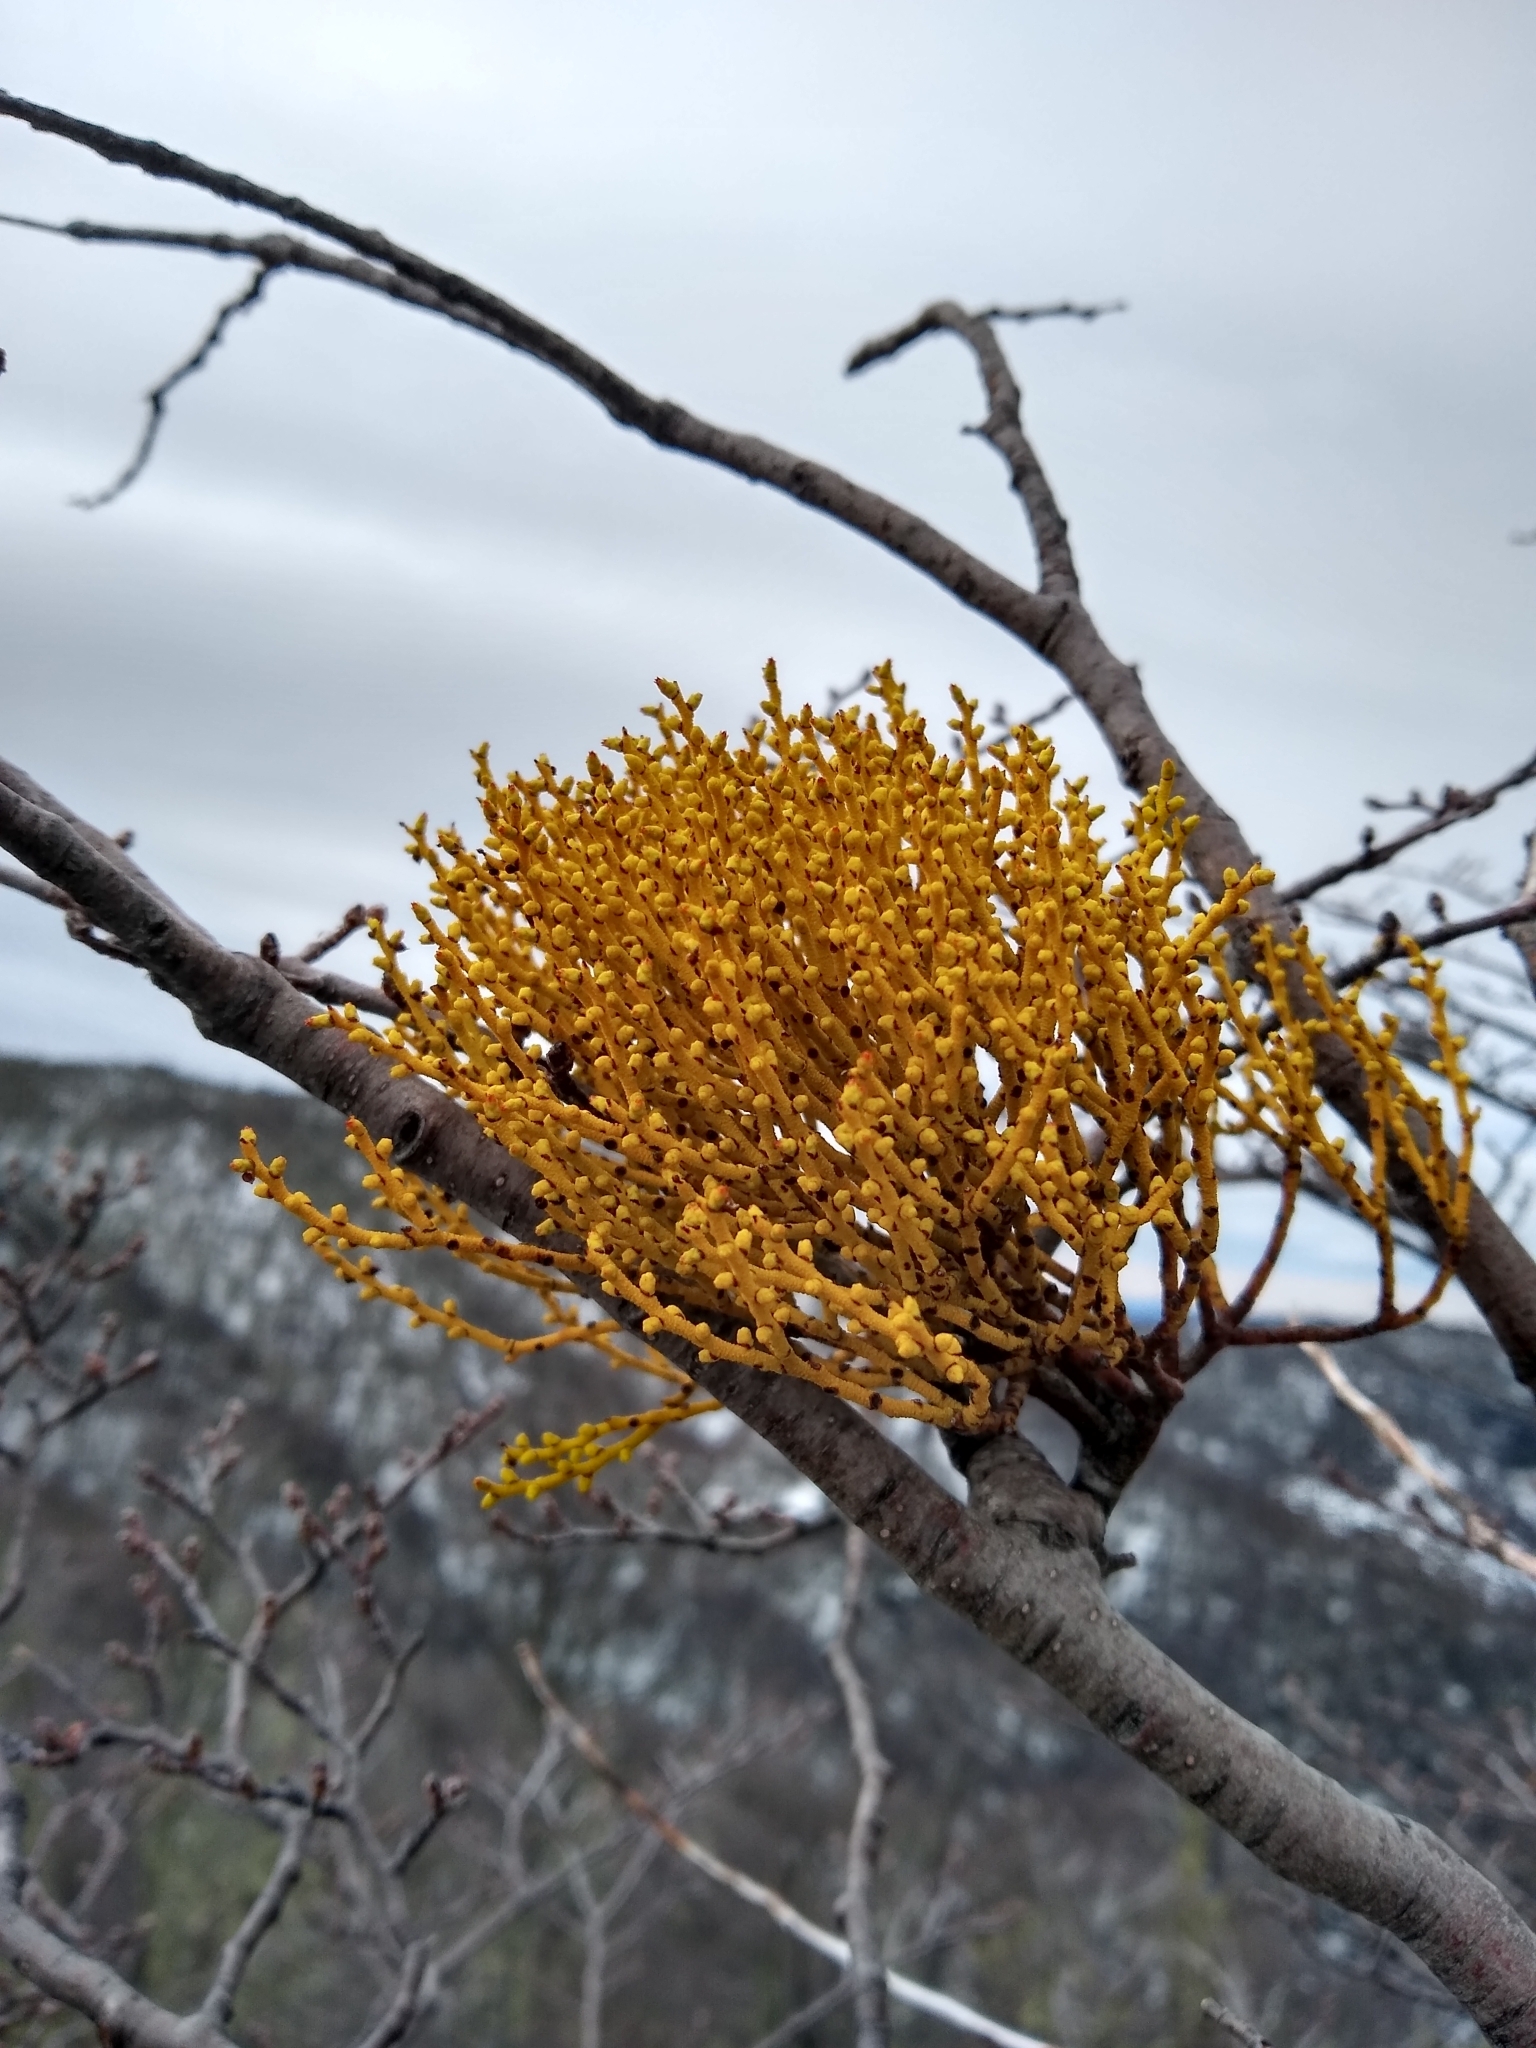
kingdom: Plantae
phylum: Tracheophyta
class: Magnoliopsida
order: Santalales
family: Misodendraceae
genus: Misodendrum
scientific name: Misodendrum punctulatum
